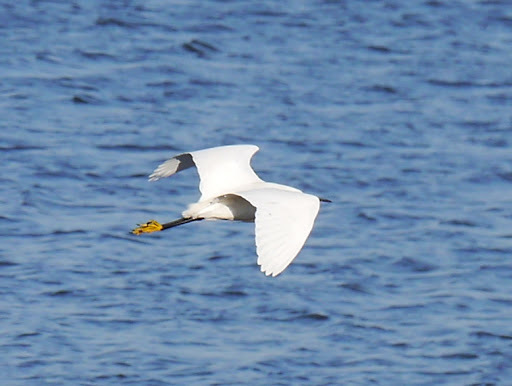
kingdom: Animalia
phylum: Chordata
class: Aves
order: Pelecaniformes
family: Ardeidae
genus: Egretta
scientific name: Egretta thula
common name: Snowy egret
